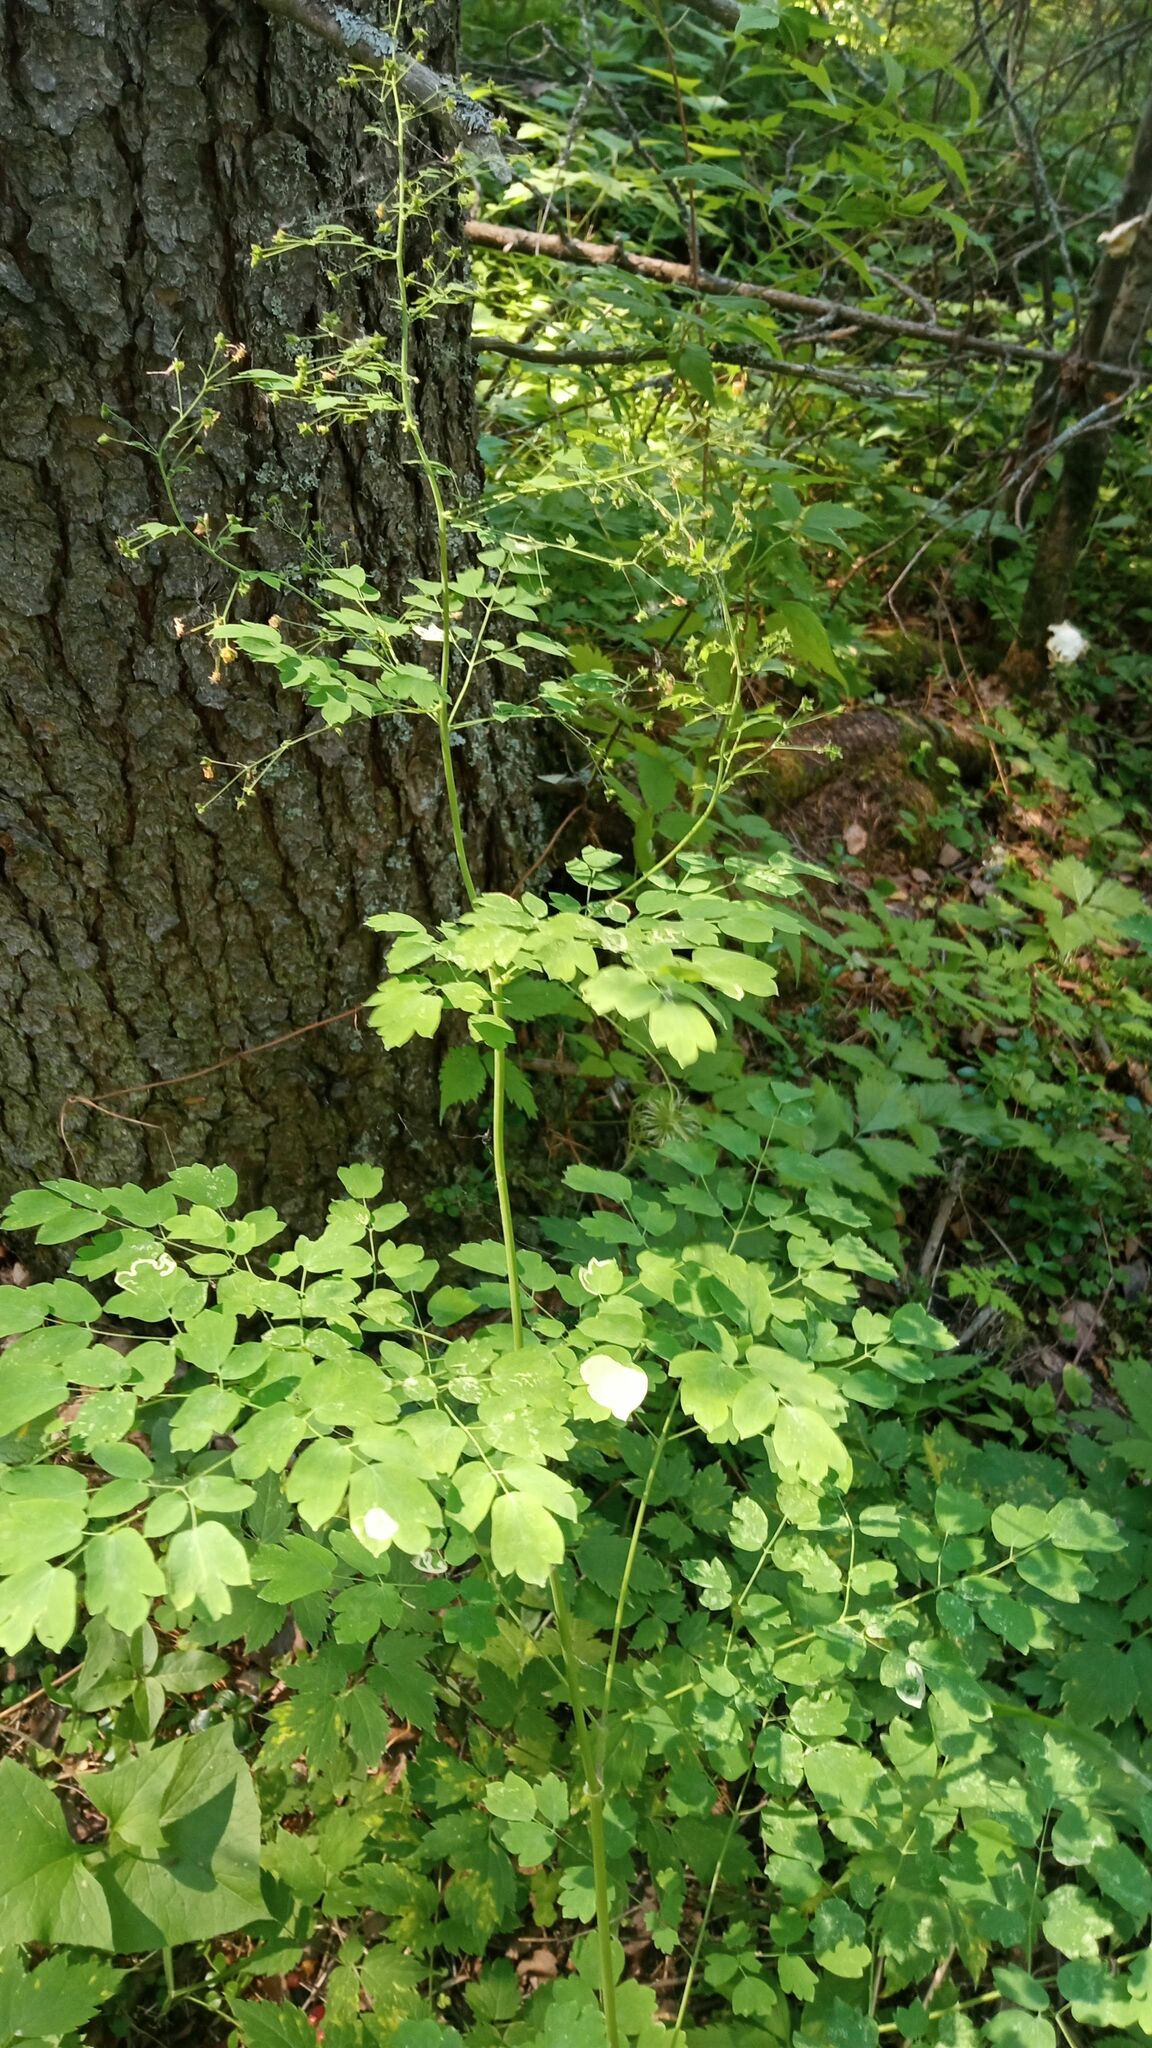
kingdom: Plantae
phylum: Tracheophyta
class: Magnoliopsida
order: Ranunculales
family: Ranunculaceae
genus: Thalictrum
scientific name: Thalictrum minus
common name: Lesser meadow-rue
